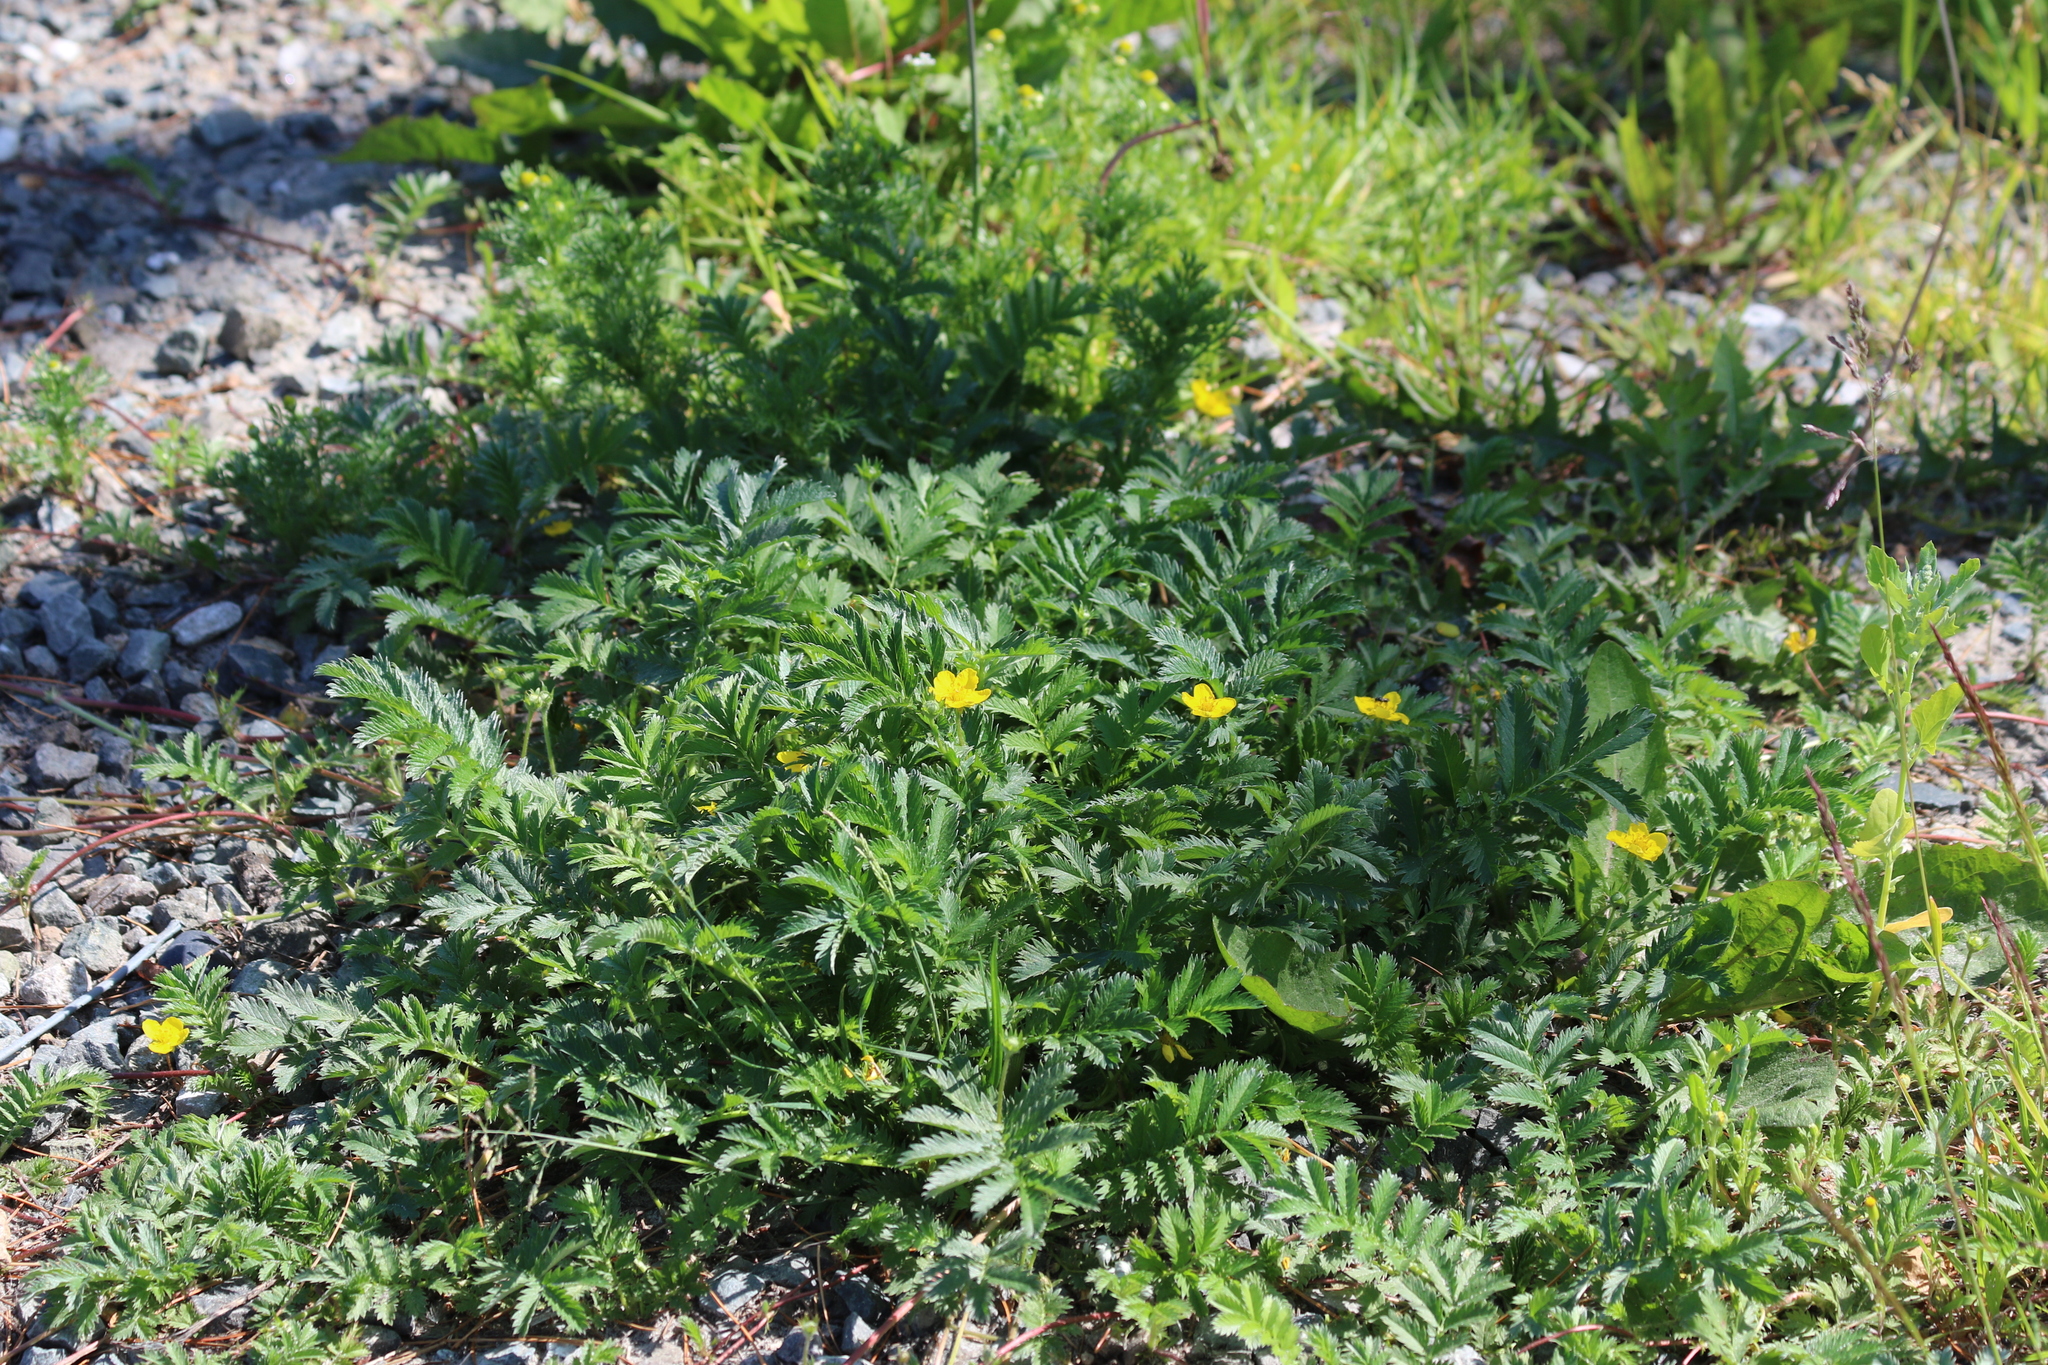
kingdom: Plantae
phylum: Tracheophyta
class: Magnoliopsida
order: Rosales
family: Rosaceae
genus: Argentina
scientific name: Argentina anserina
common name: Common silverweed
